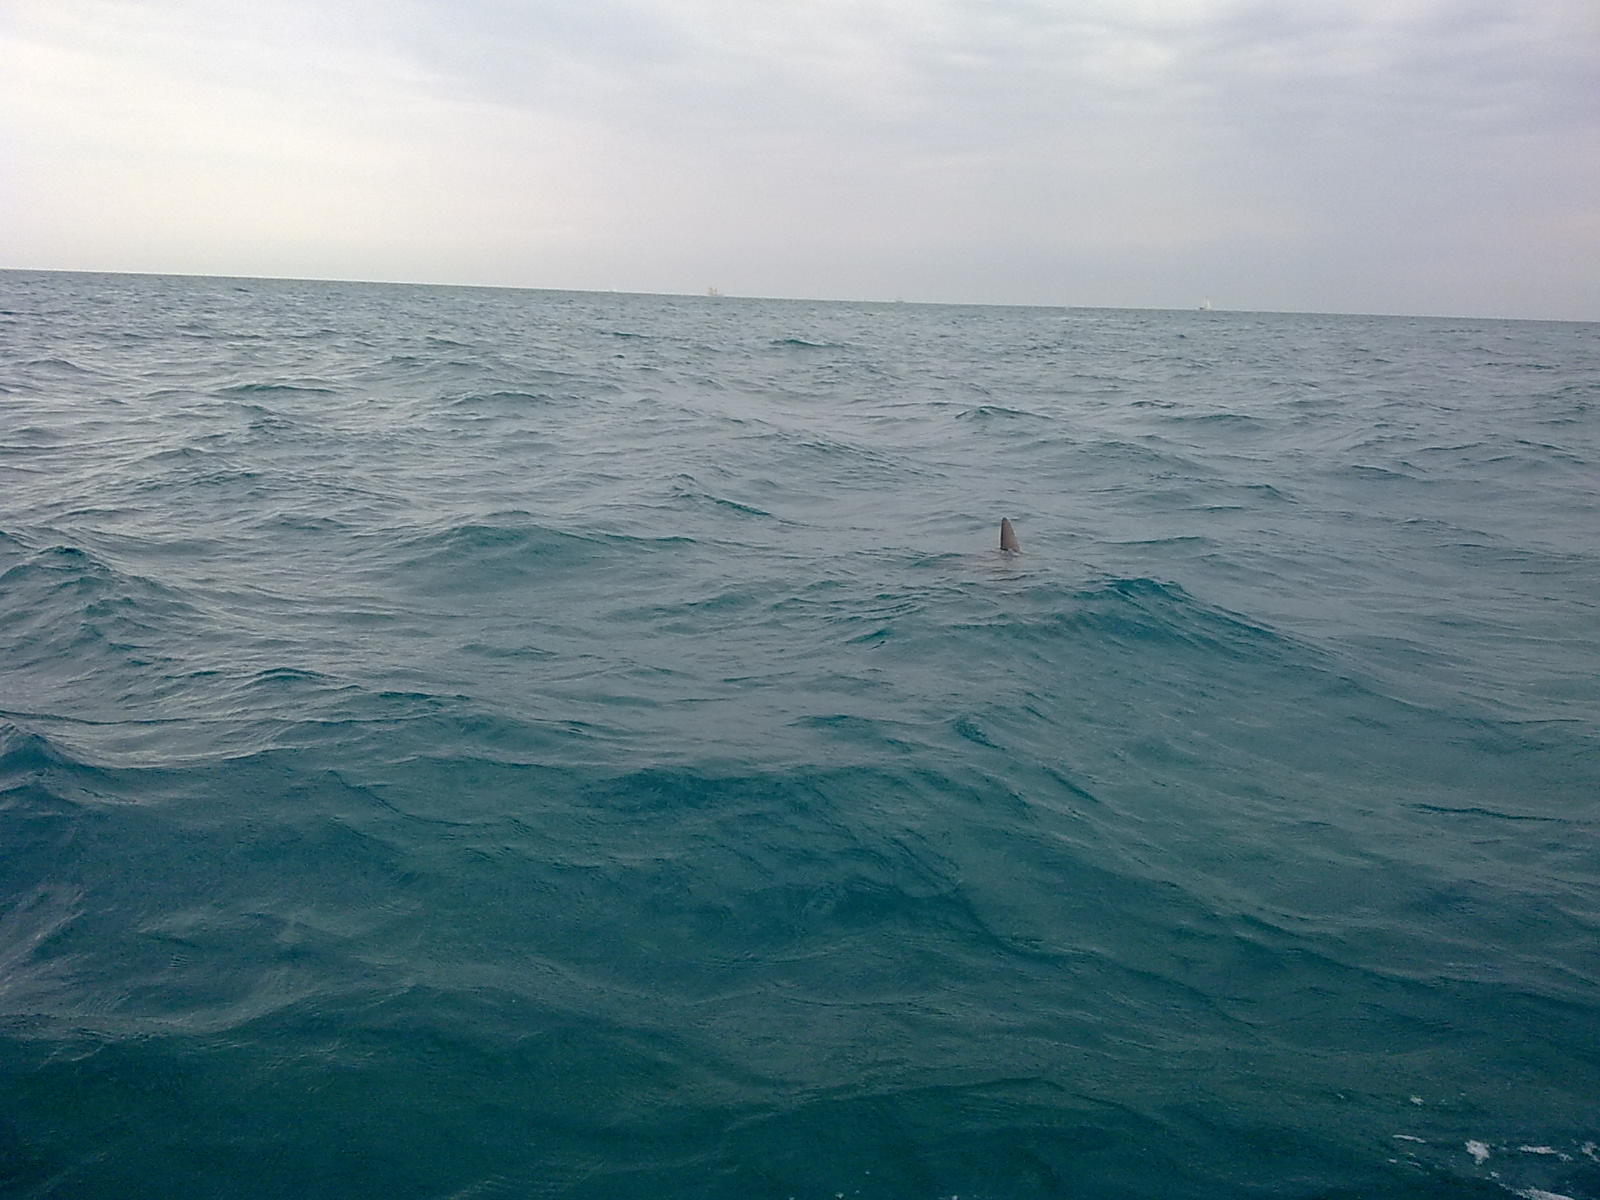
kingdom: Animalia
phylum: Chordata
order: Tetraodontiformes
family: Molidae
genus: Mola
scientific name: Mola mola
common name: Ocean sunfish
